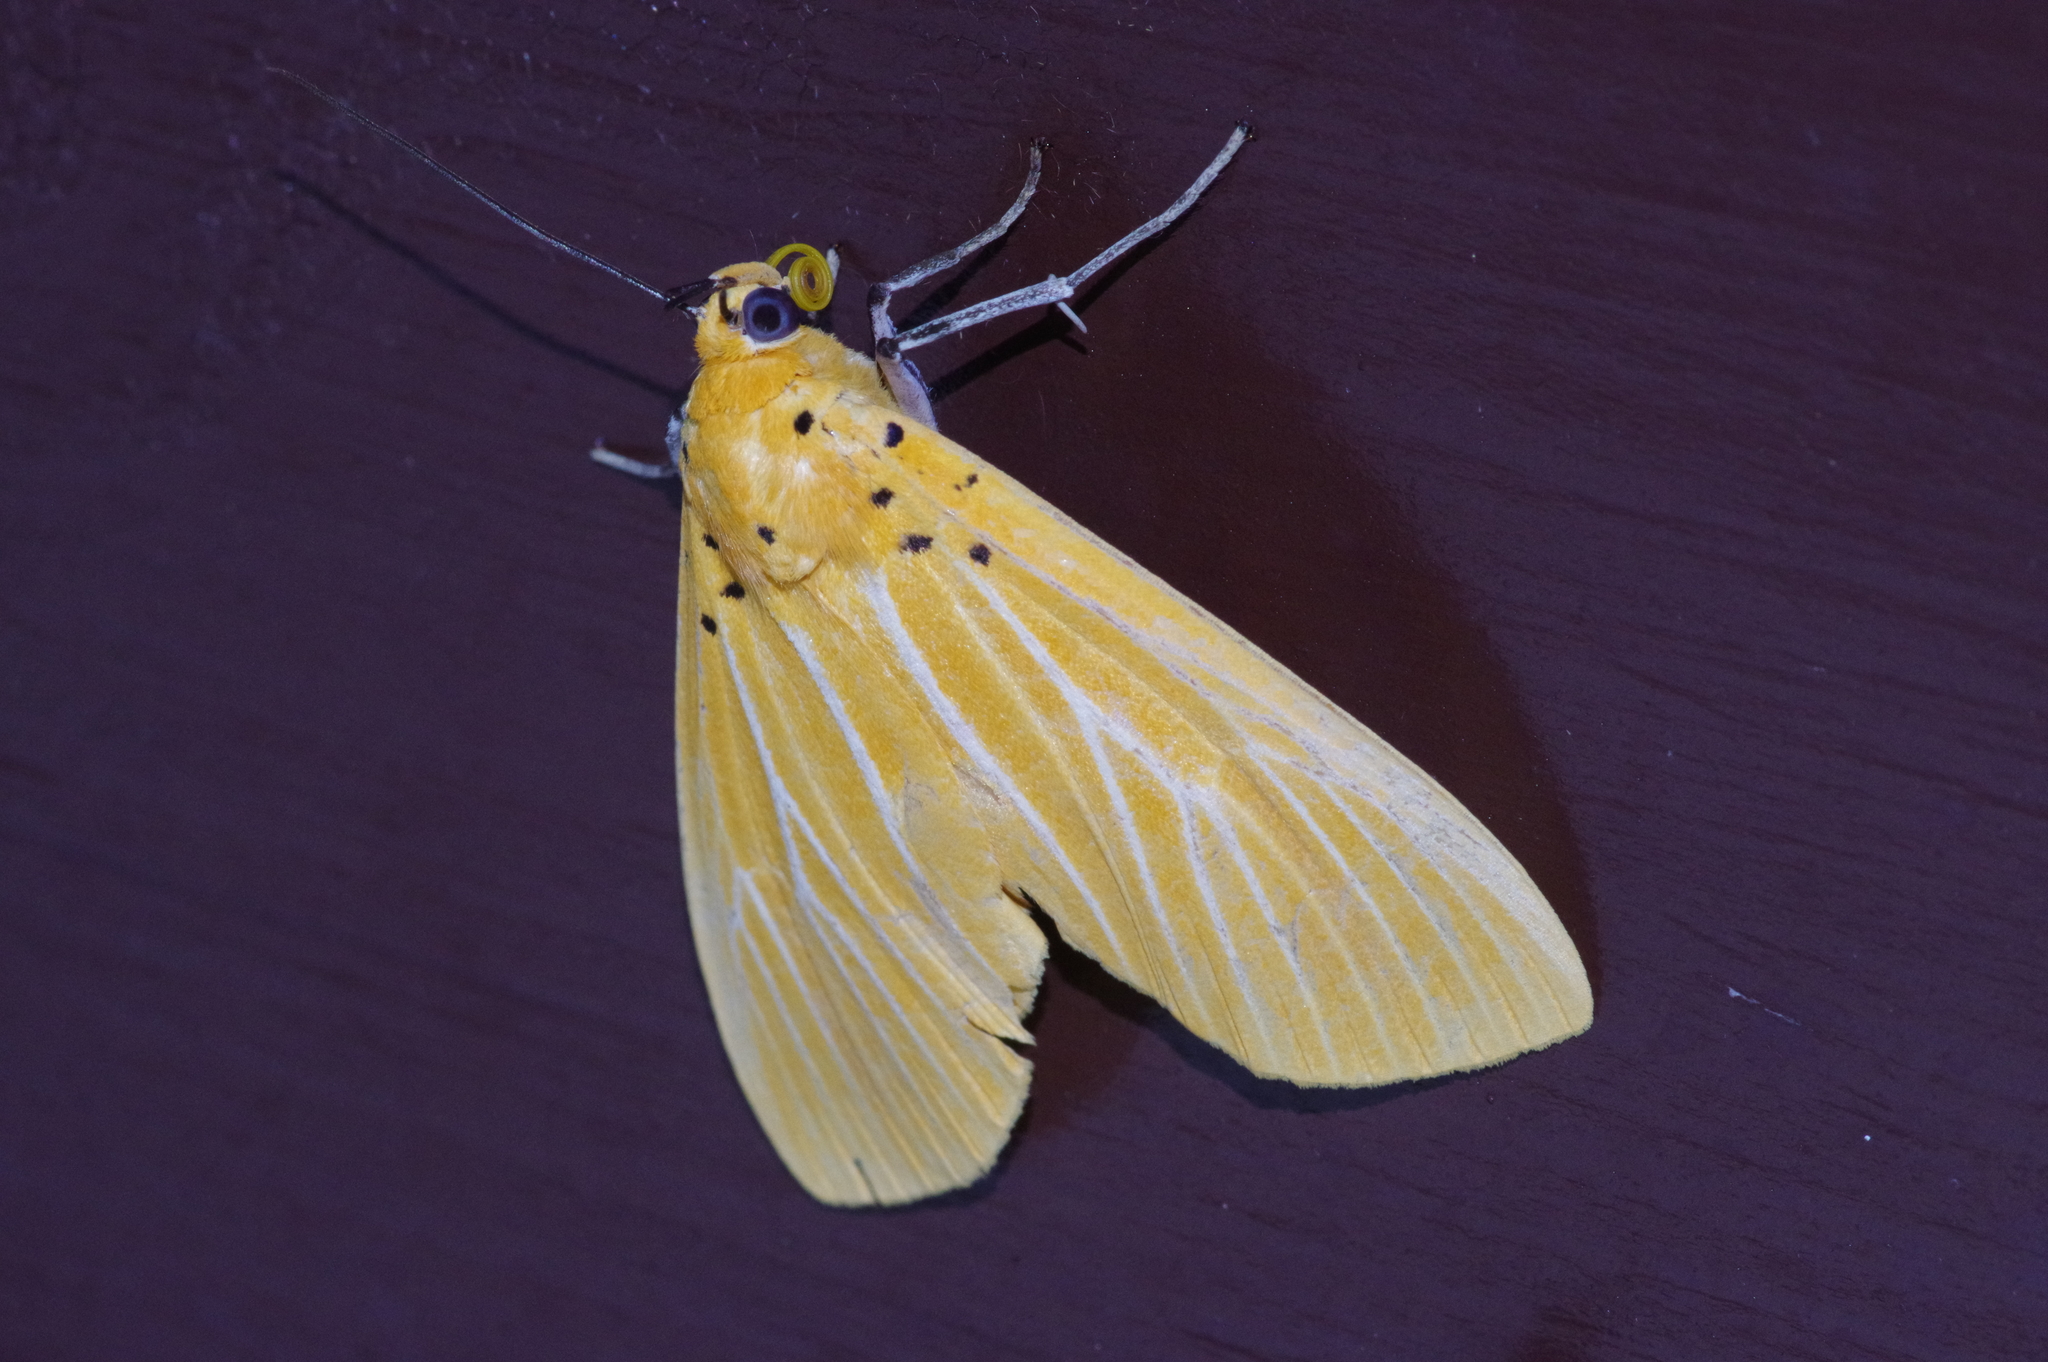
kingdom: Animalia
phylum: Arthropoda
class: Insecta
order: Lepidoptera
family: Erebidae
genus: Asota
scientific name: Asota egens
